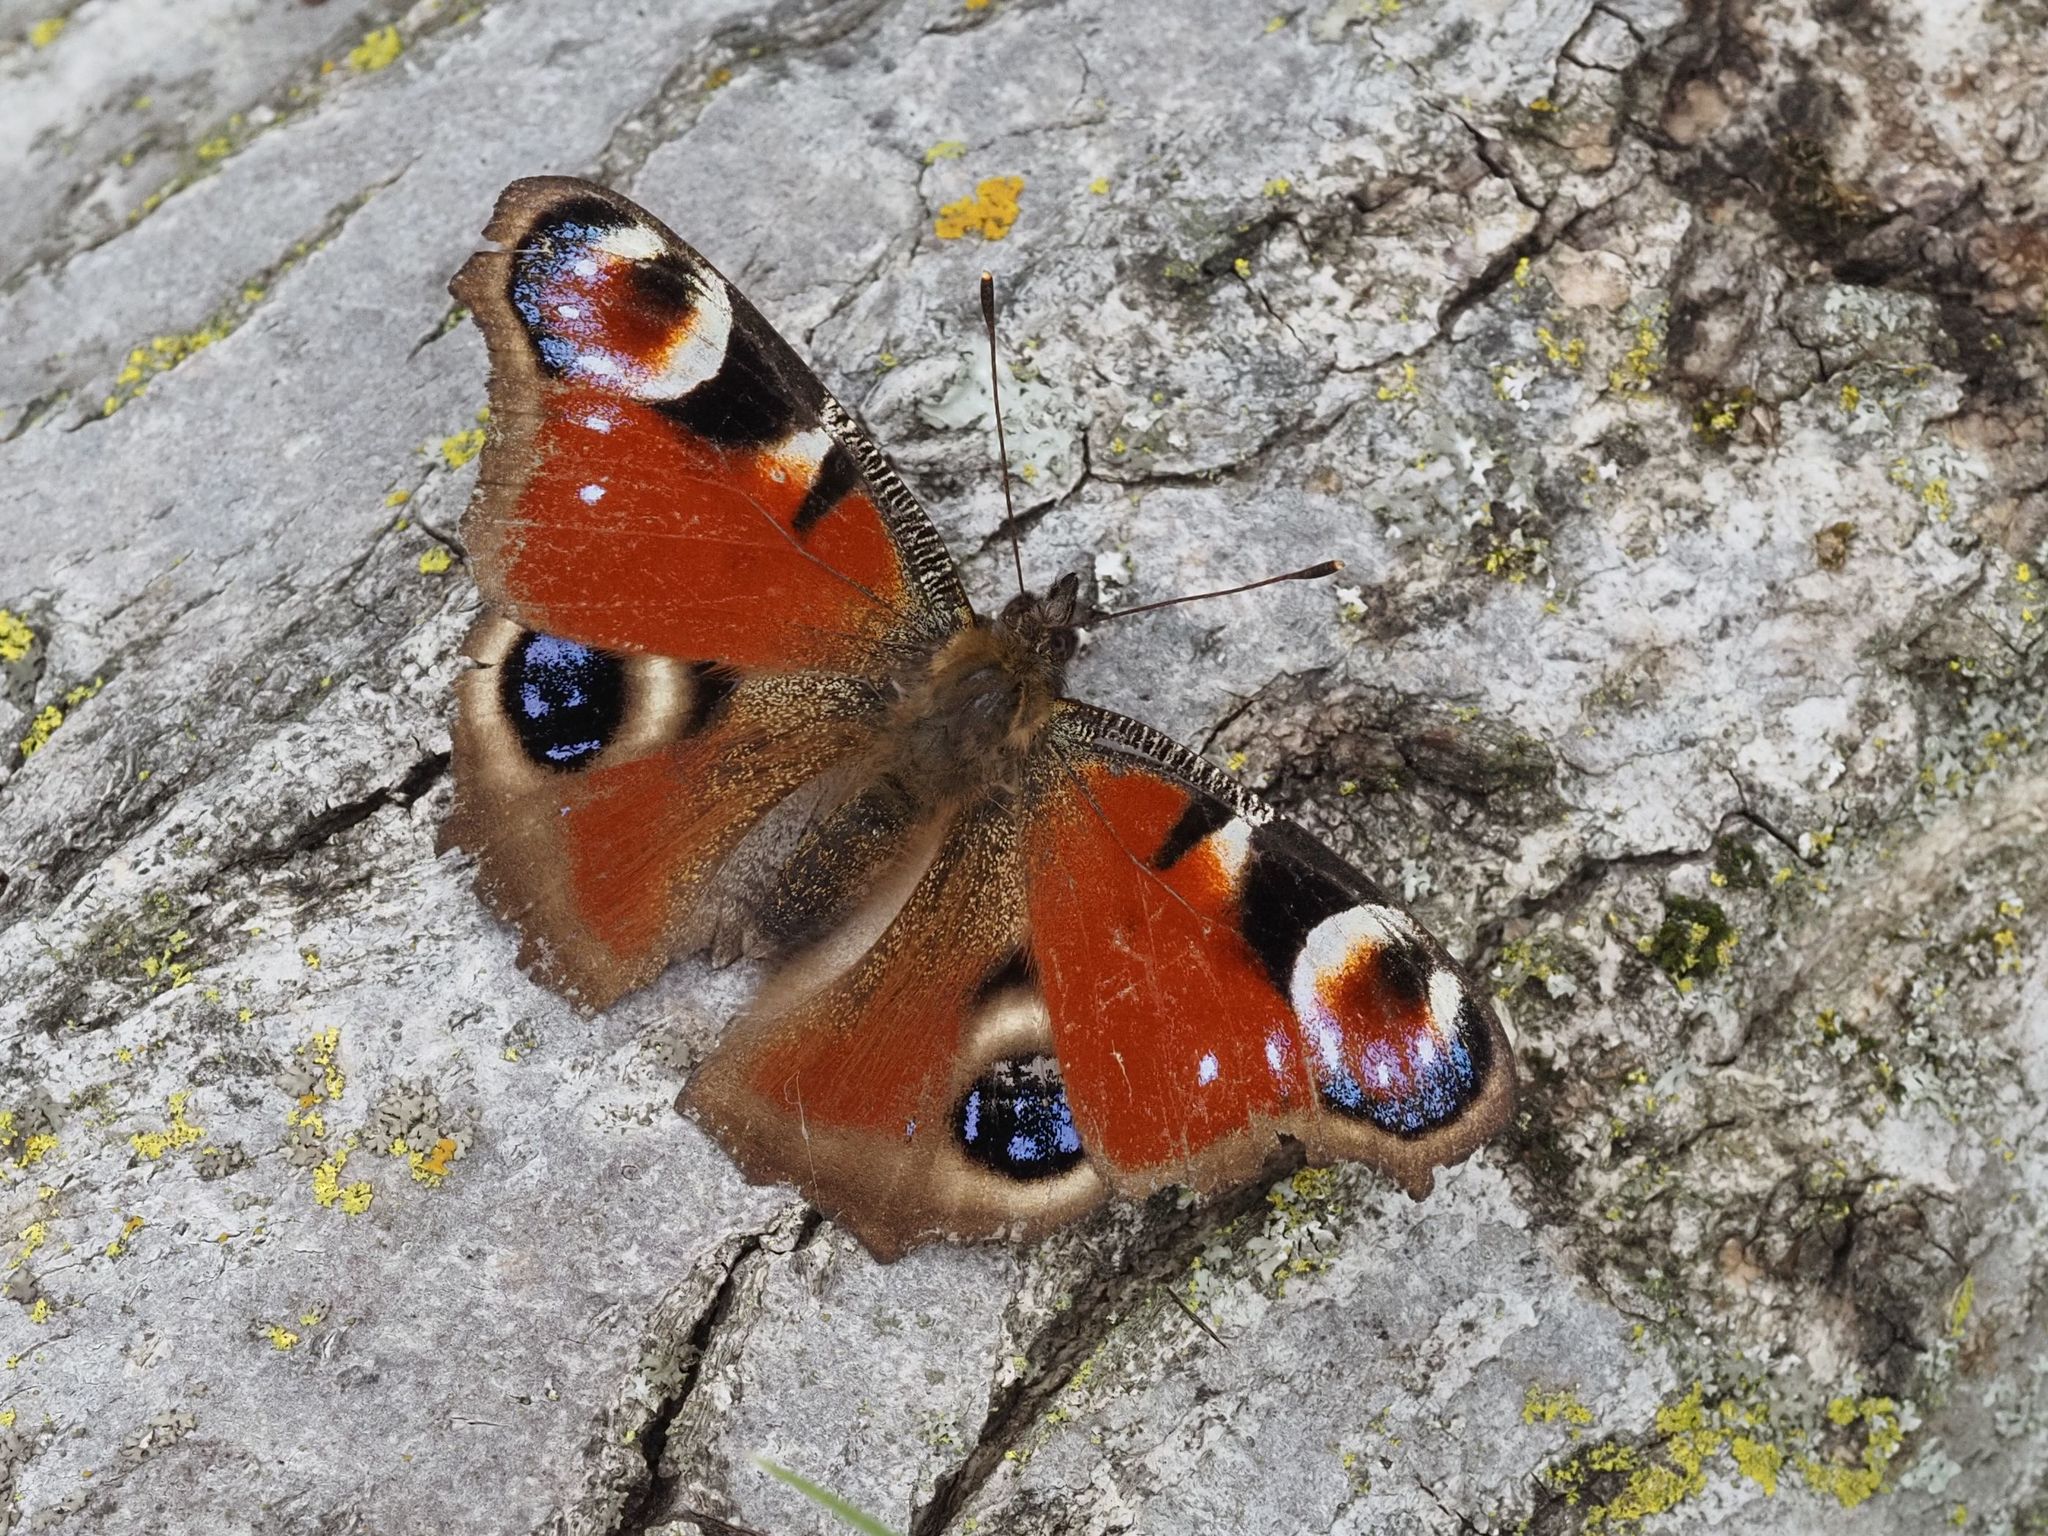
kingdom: Animalia
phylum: Arthropoda
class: Insecta
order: Lepidoptera
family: Nymphalidae
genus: Aglais
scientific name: Aglais io
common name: Peacock
